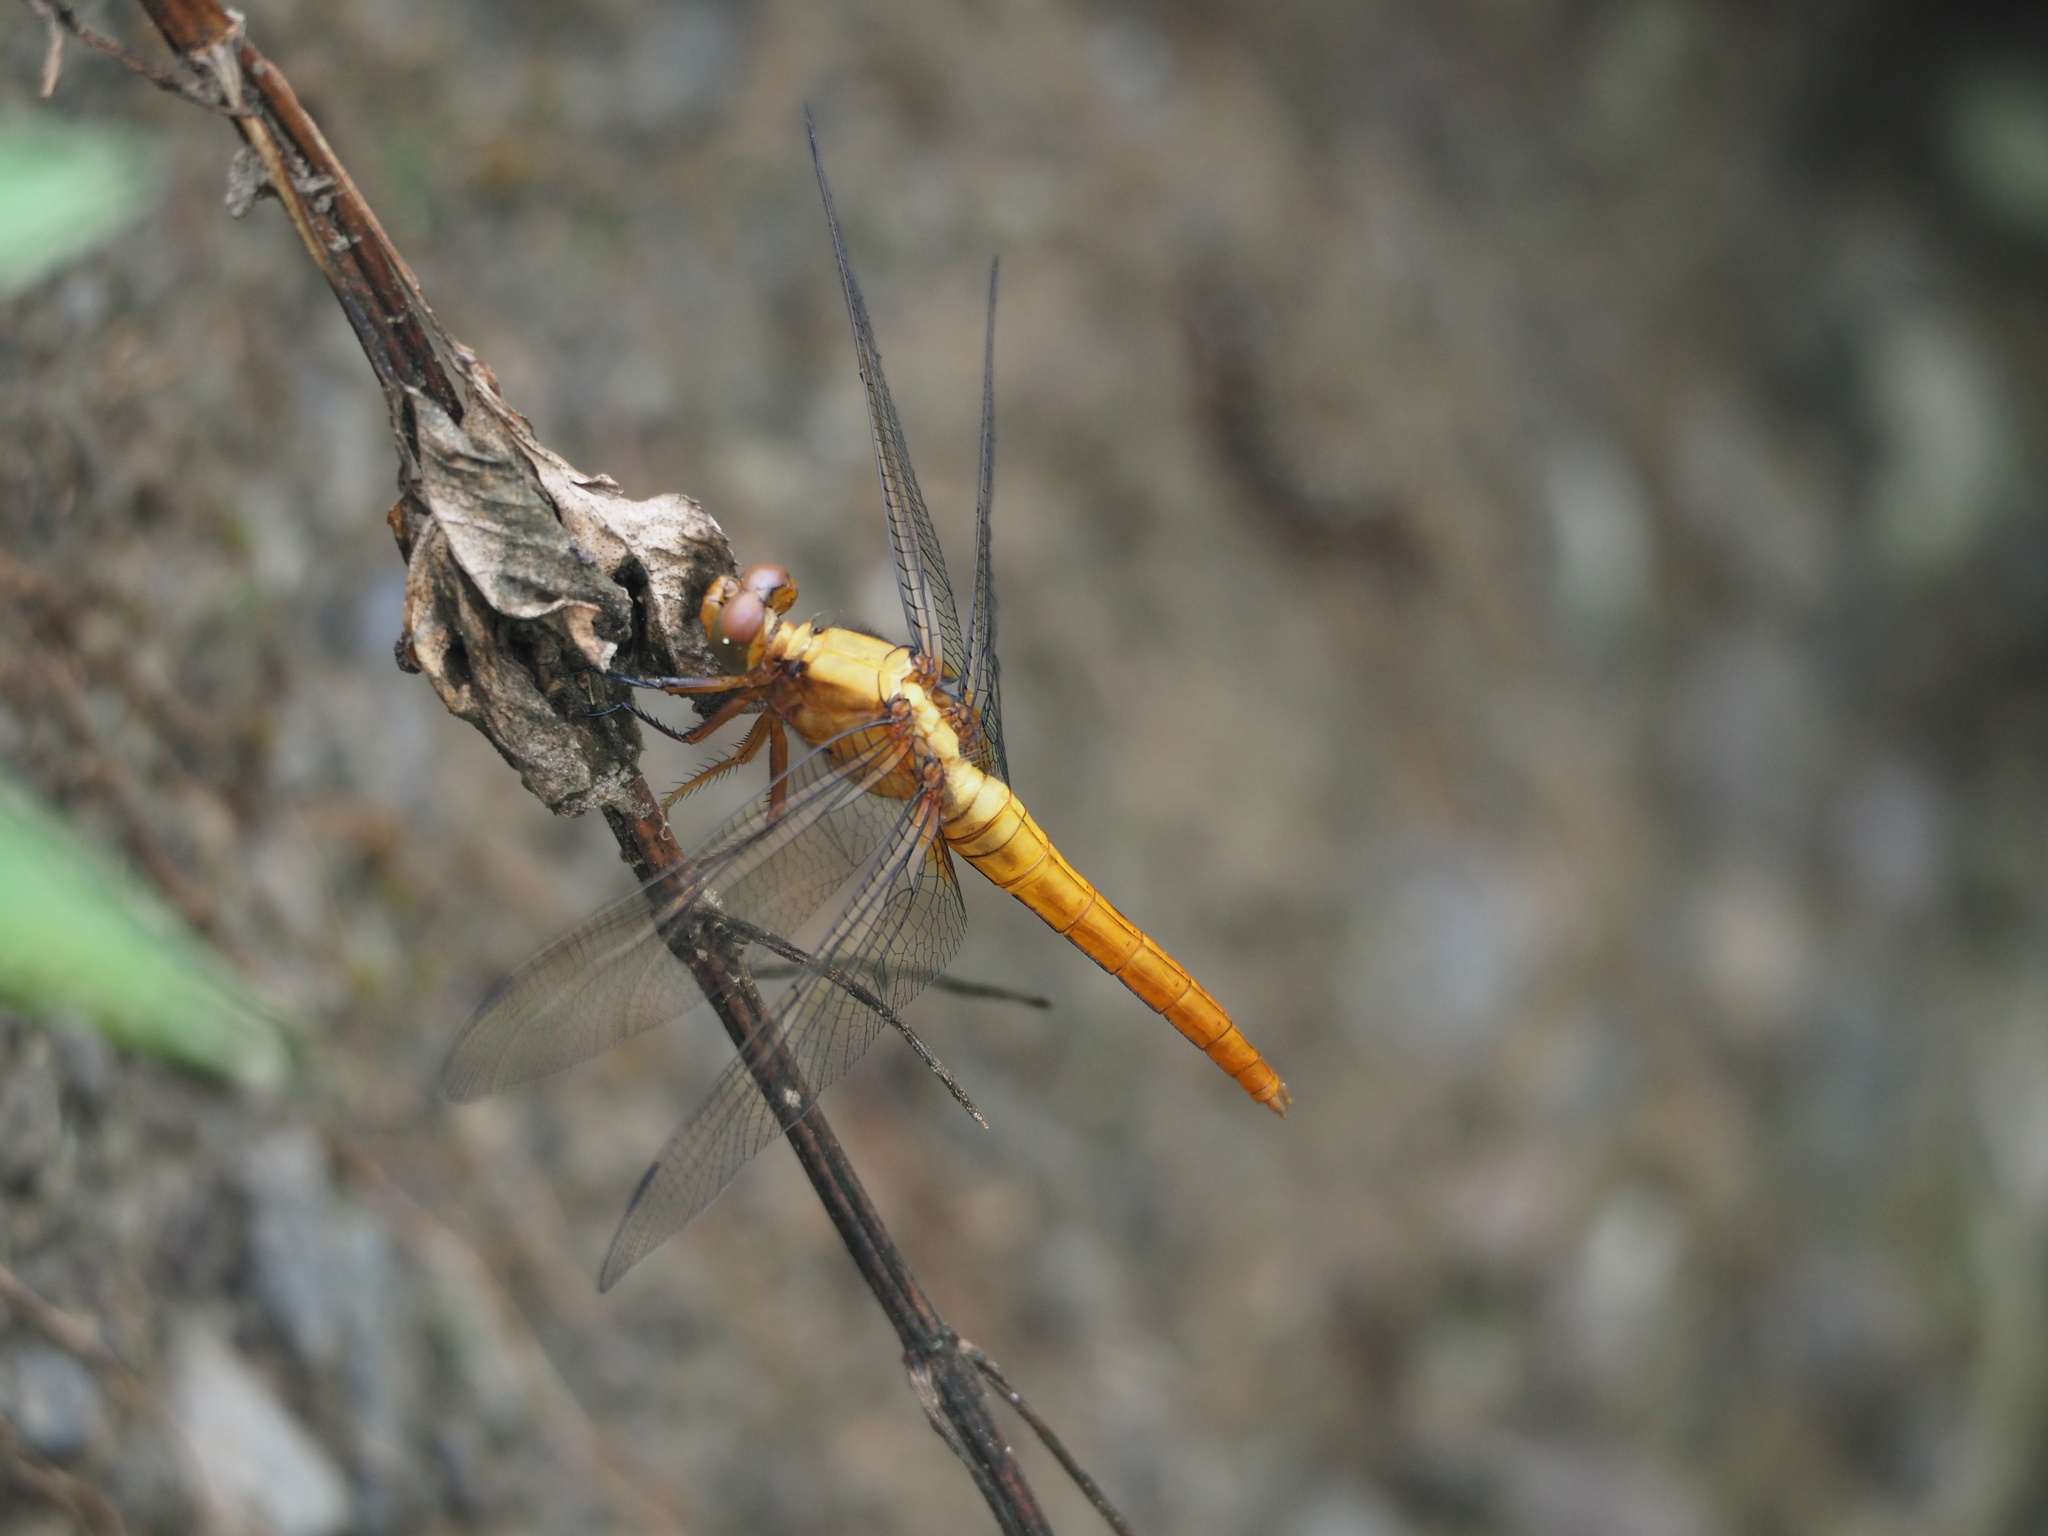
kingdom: Animalia
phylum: Arthropoda
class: Insecta
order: Odonata
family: Libellulidae
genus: Orthetrum
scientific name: Orthetrum pruinosum
